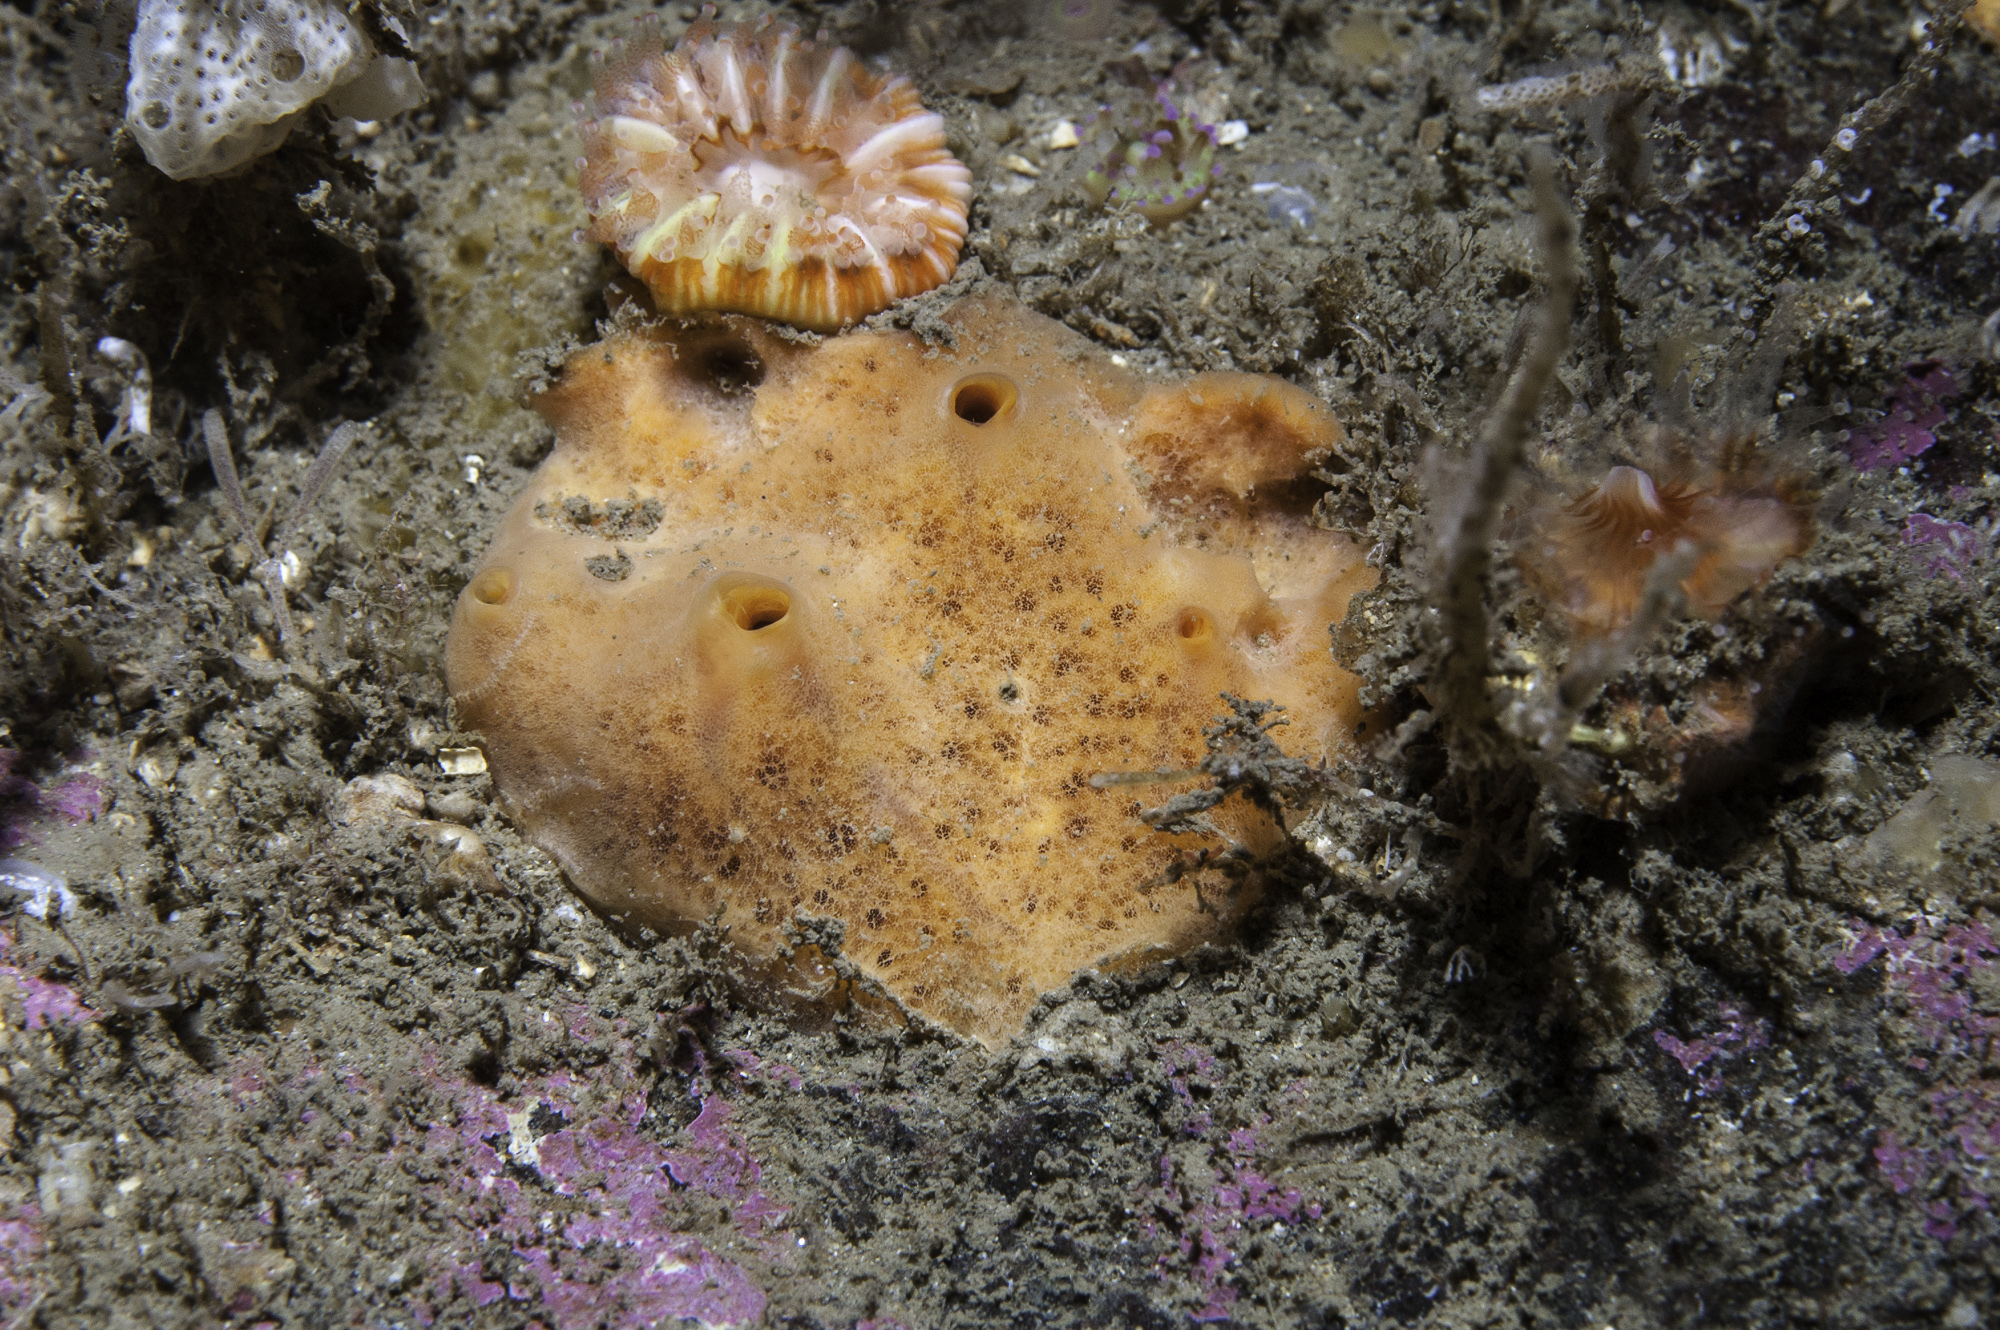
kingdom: Animalia
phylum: Porifera
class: Demospongiae
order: Poecilosclerida
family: Myxillidae
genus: Myxilla
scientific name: Myxilla fimbriata
